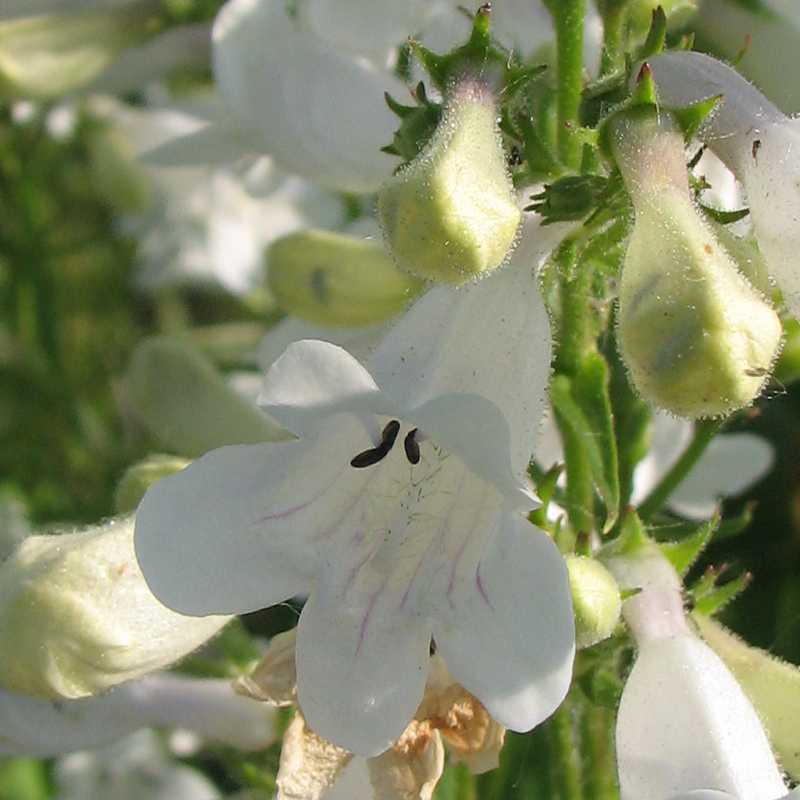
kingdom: Plantae
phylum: Tracheophyta
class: Magnoliopsida
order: Lamiales
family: Plantaginaceae
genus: Penstemon
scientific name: Penstemon digitalis
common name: Foxglove beardtongue
